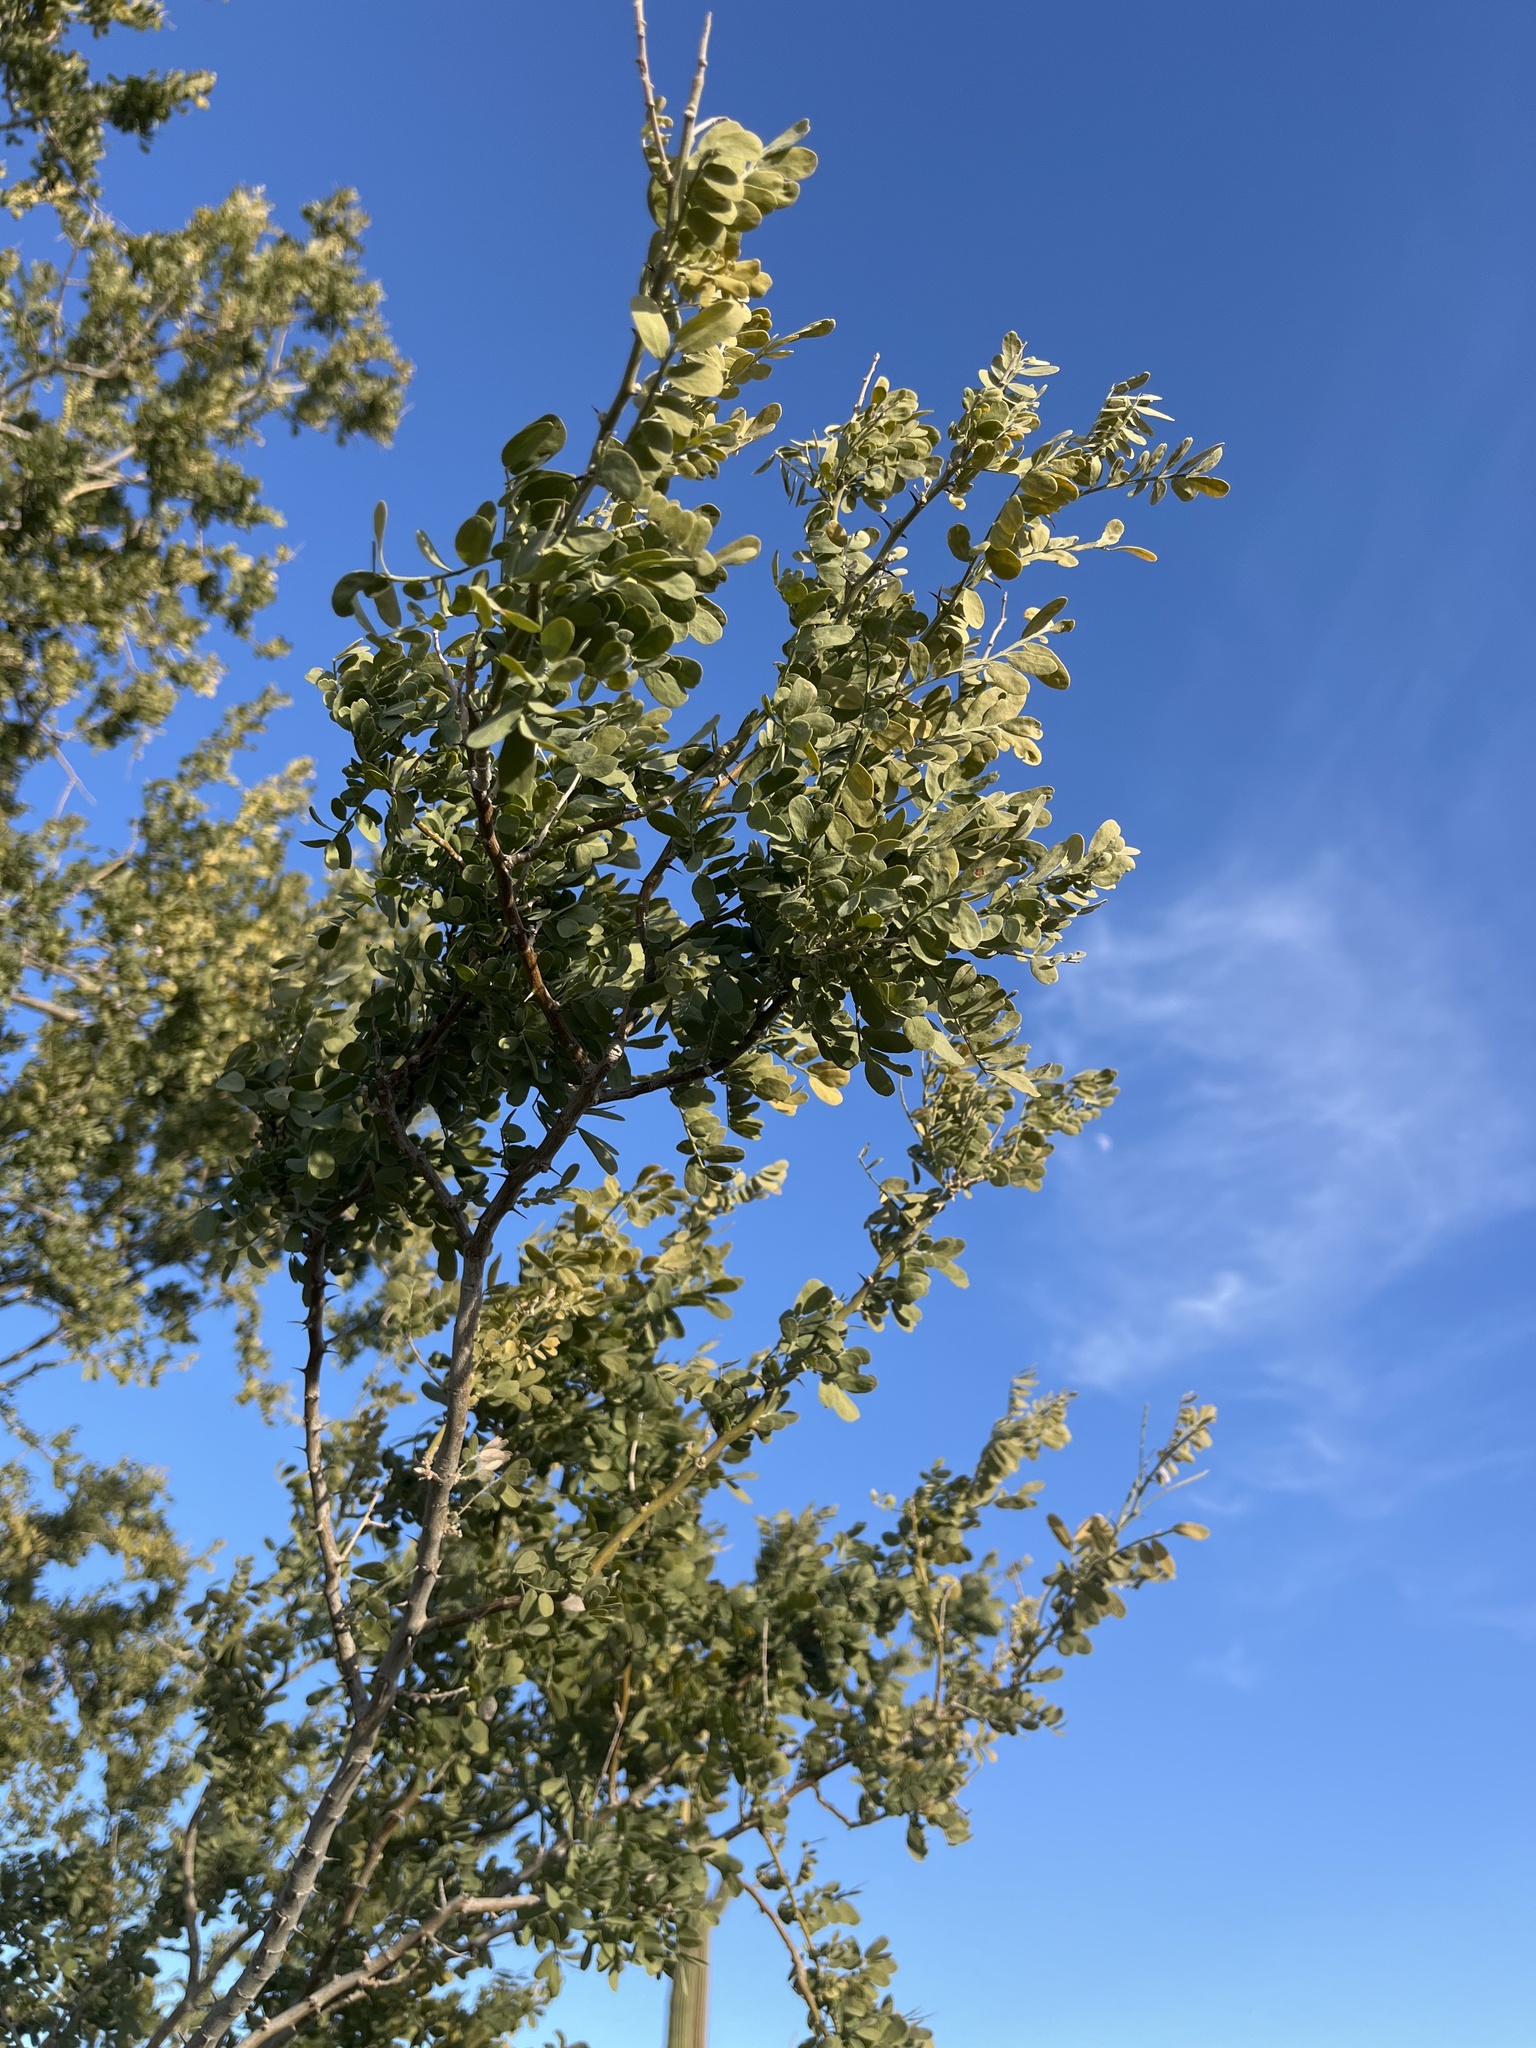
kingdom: Plantae
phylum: Tracheophyta
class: Magnoliopsida
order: Fabales
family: Fabaceae
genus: Olneya
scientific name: Olneya tesota
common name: Desert ironwood
